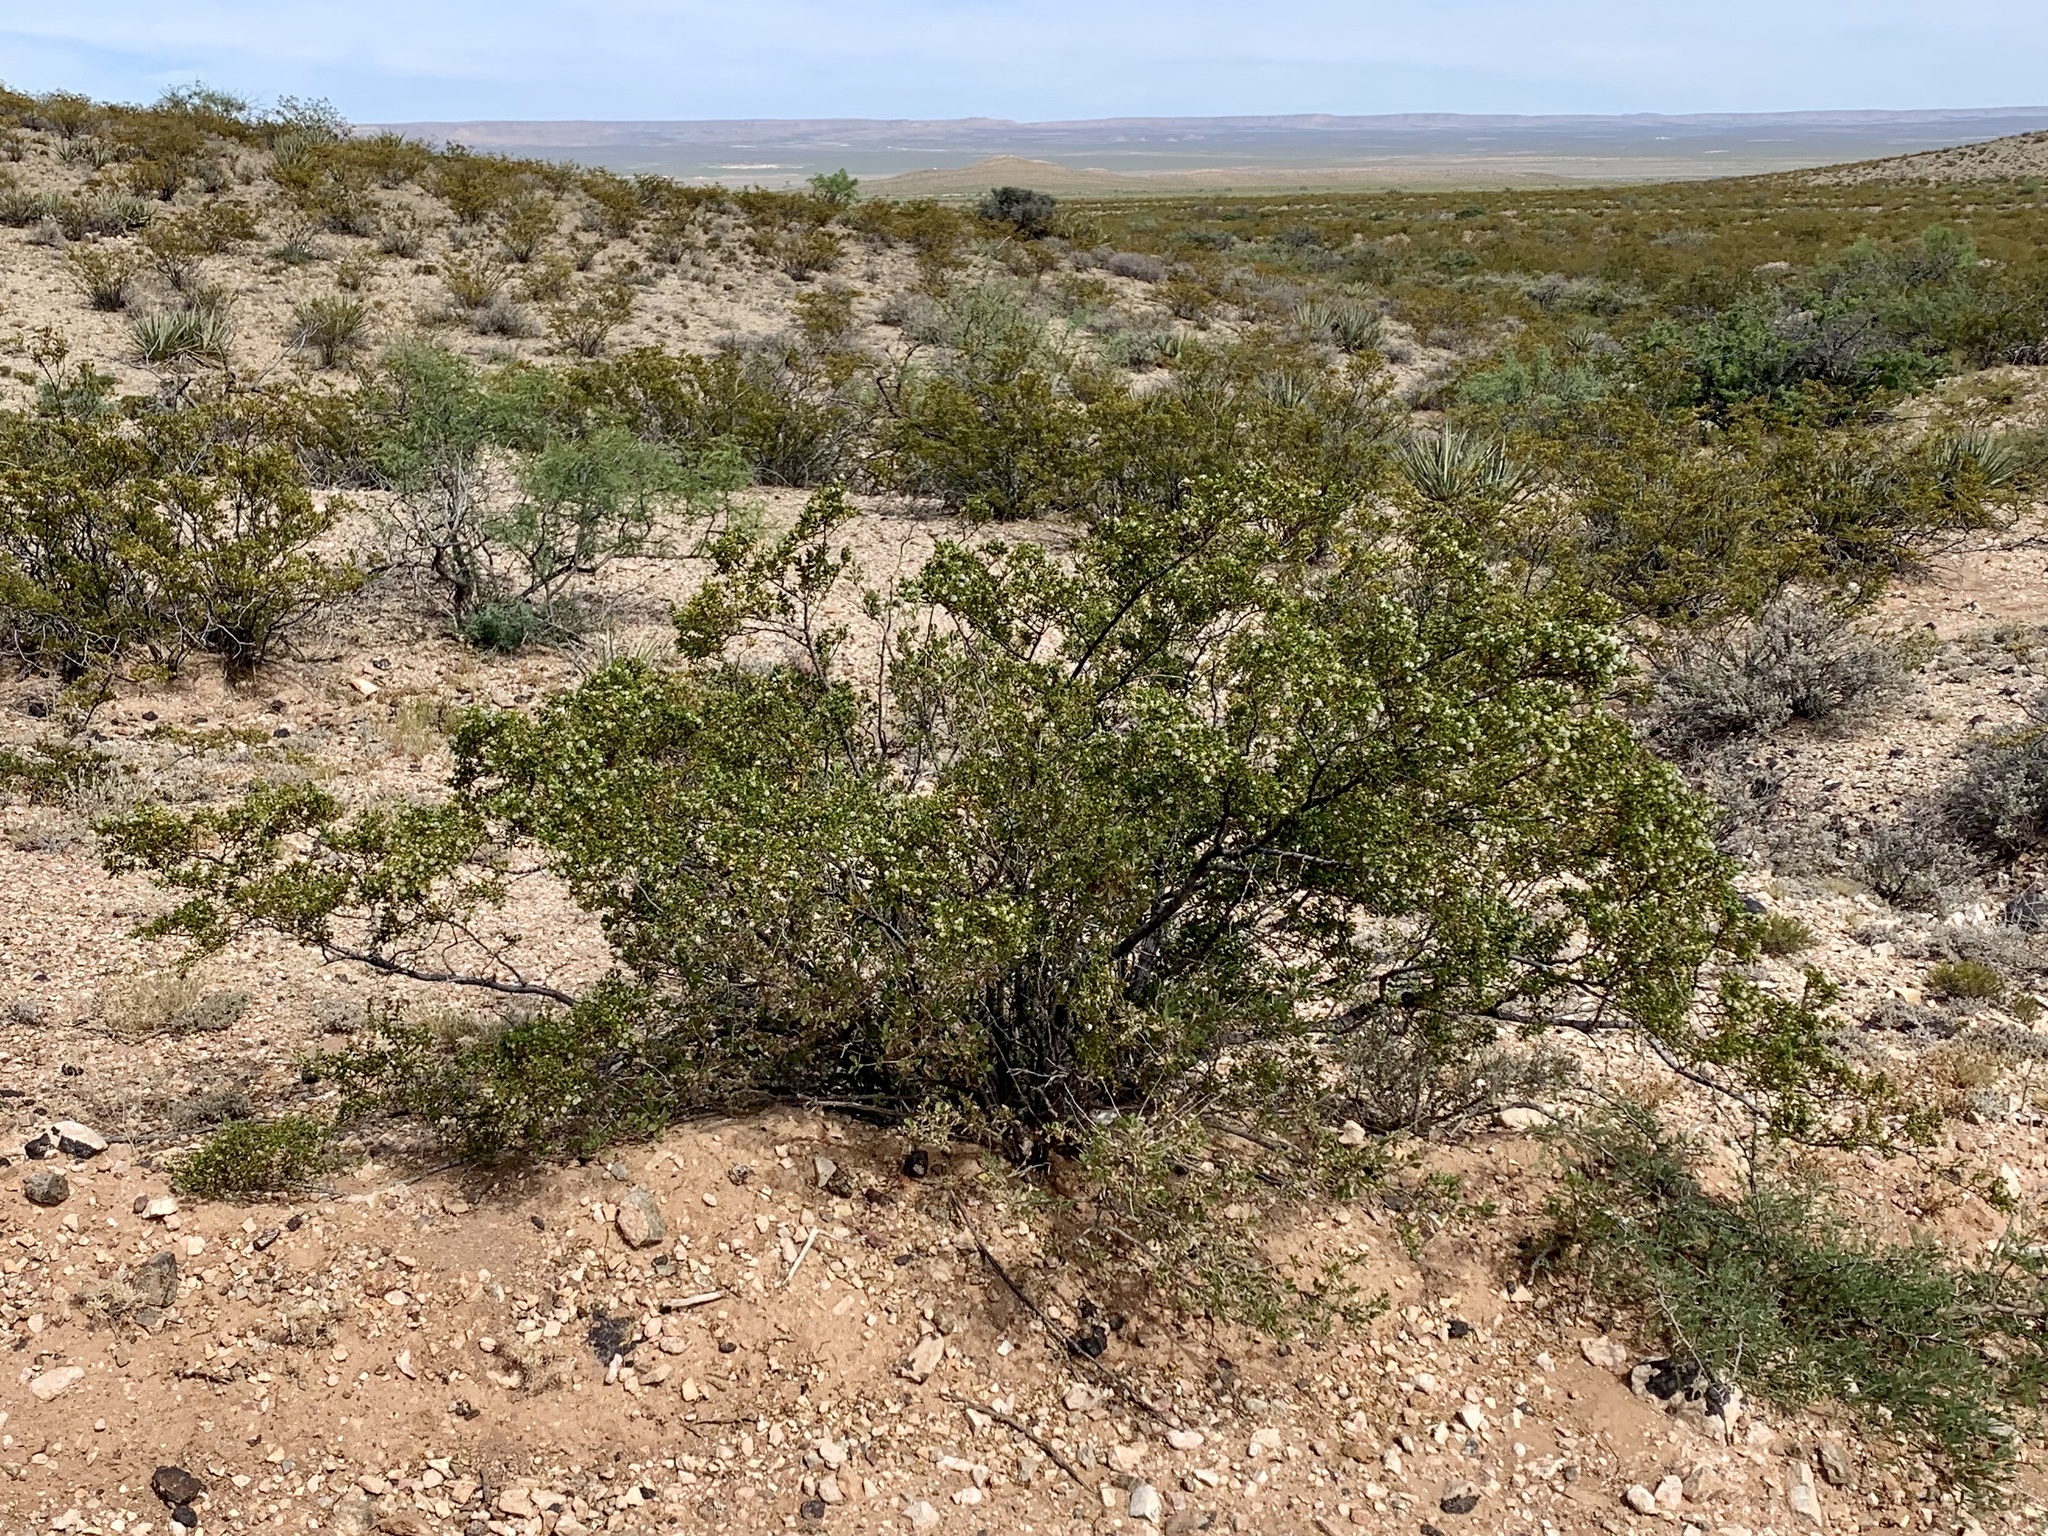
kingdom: Plantae
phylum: Tracheophyta
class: Magnoliopsida
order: Zygophyllales
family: Zygophyllaceae
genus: Larrea
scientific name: Larrea tridentata
